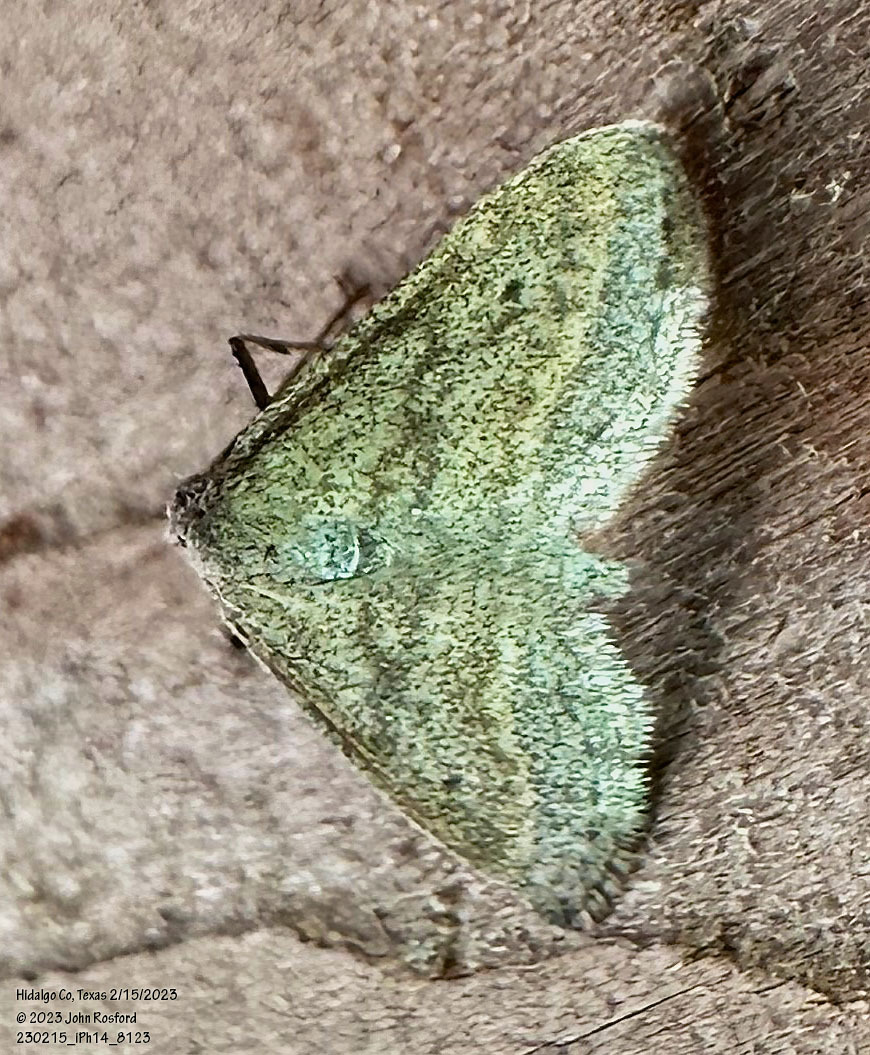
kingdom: Animalia
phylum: Arthropoda
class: Insecta
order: Lepidoptera
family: Geometridae
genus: Lobocleta
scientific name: Lobocleta plemyraria
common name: Straight-lined wave
